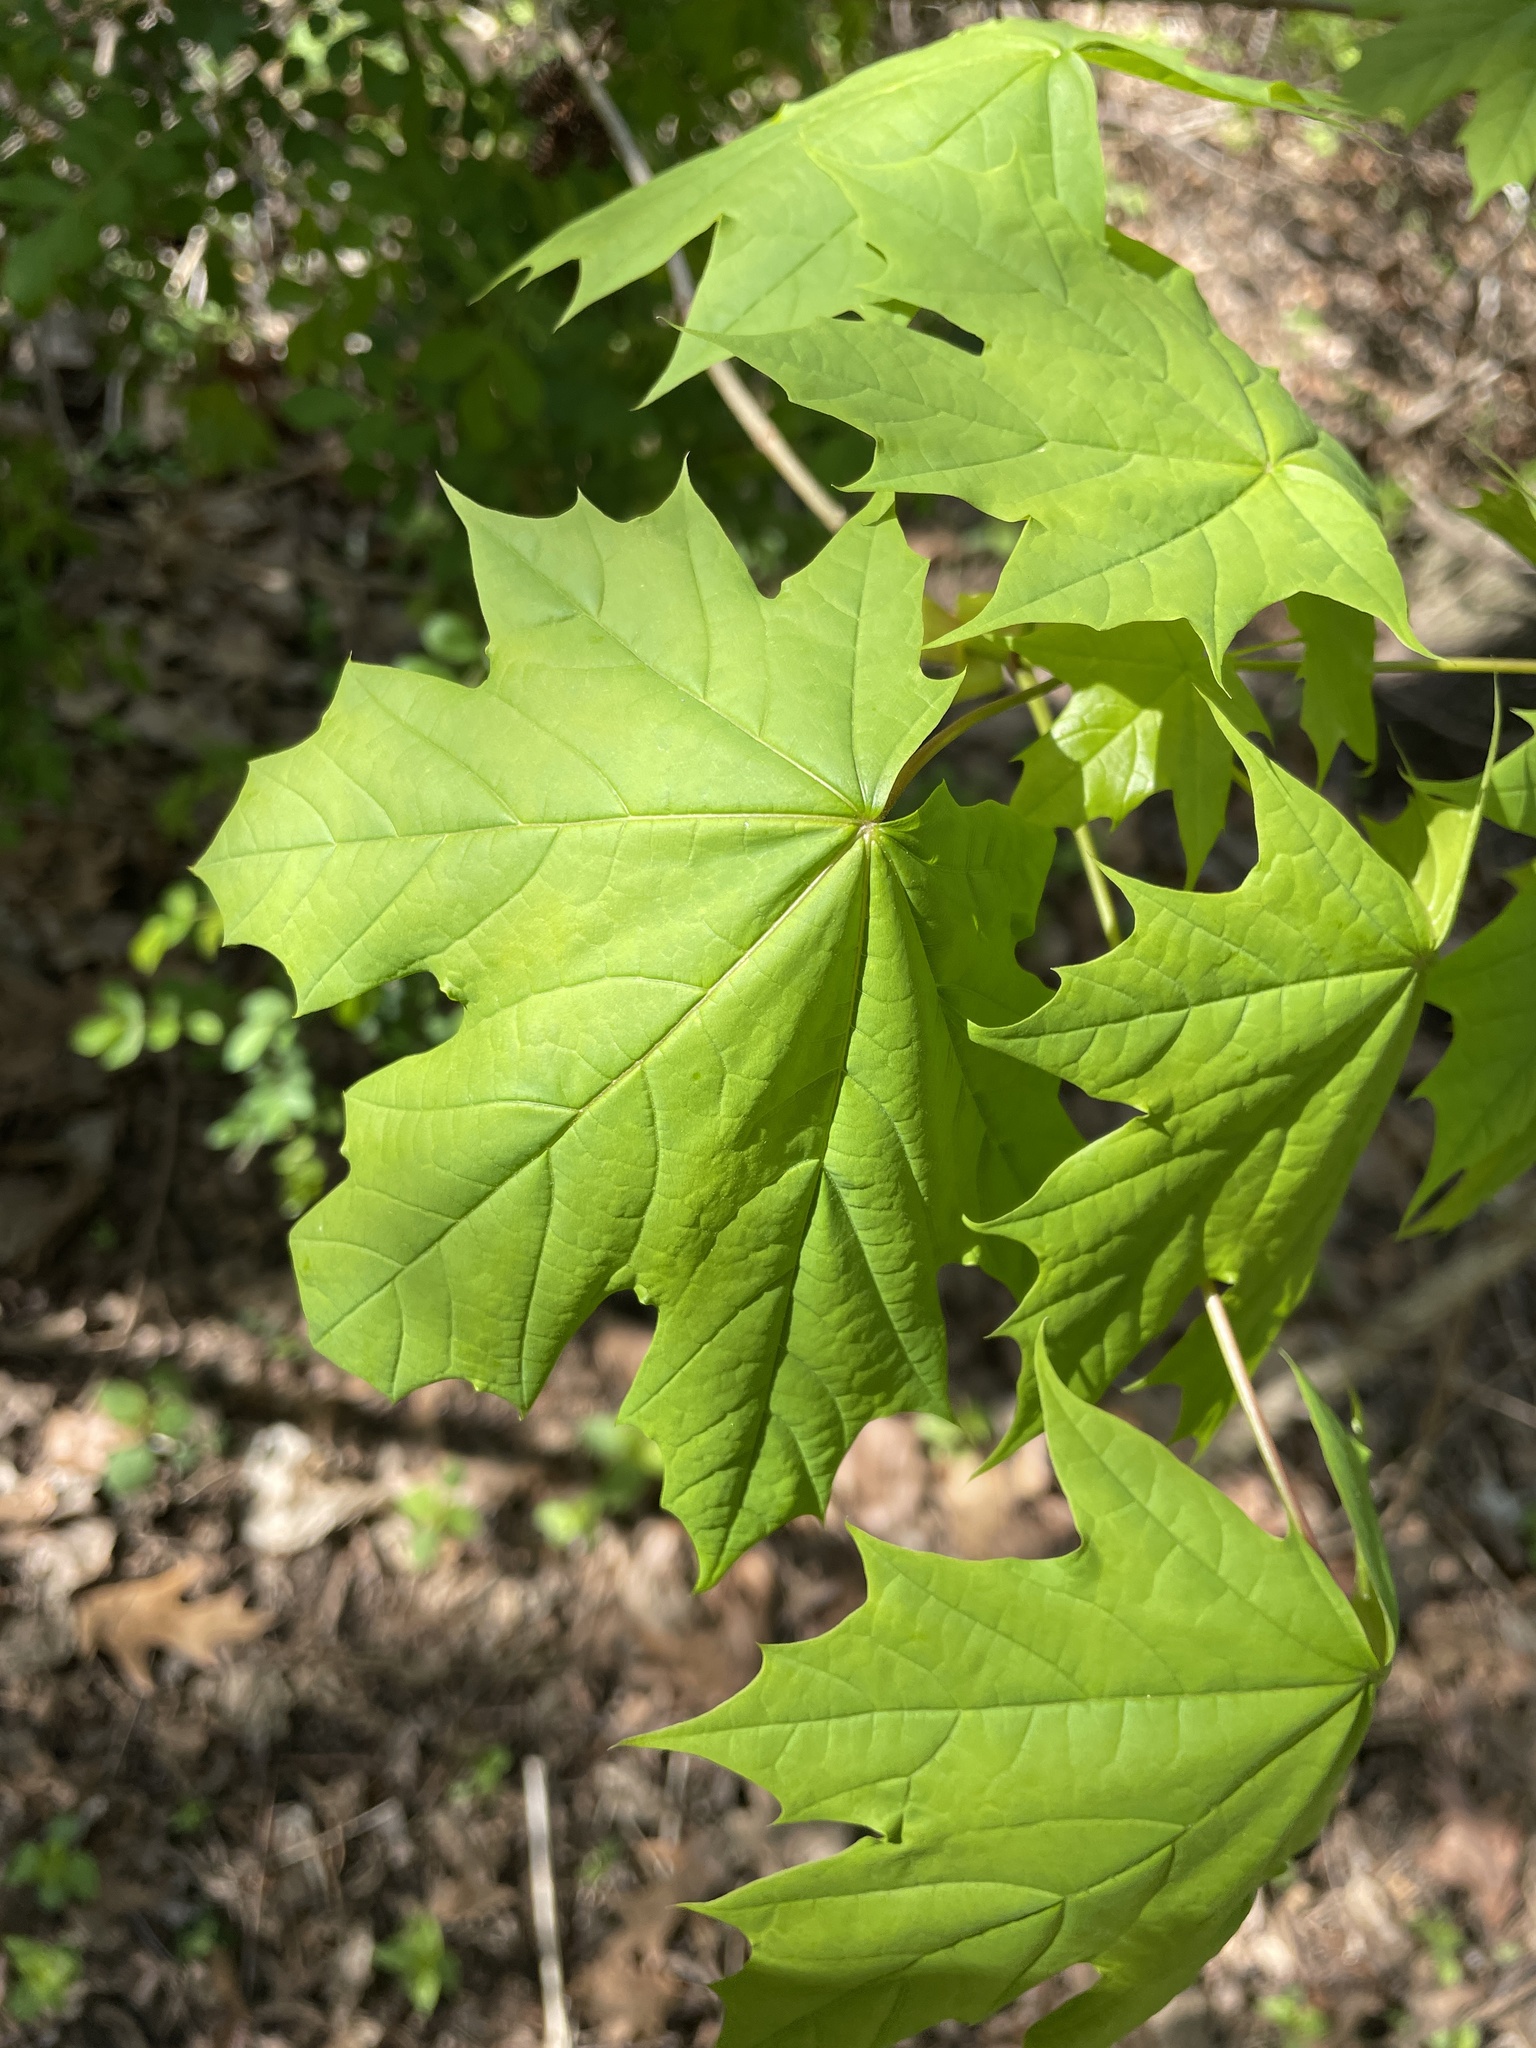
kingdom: Plantae
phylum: Tracheophyta
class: Magnoliopsida
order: Sapindales
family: Sapindaceae
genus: Acer
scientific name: Acer platanoides
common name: Norway maple
